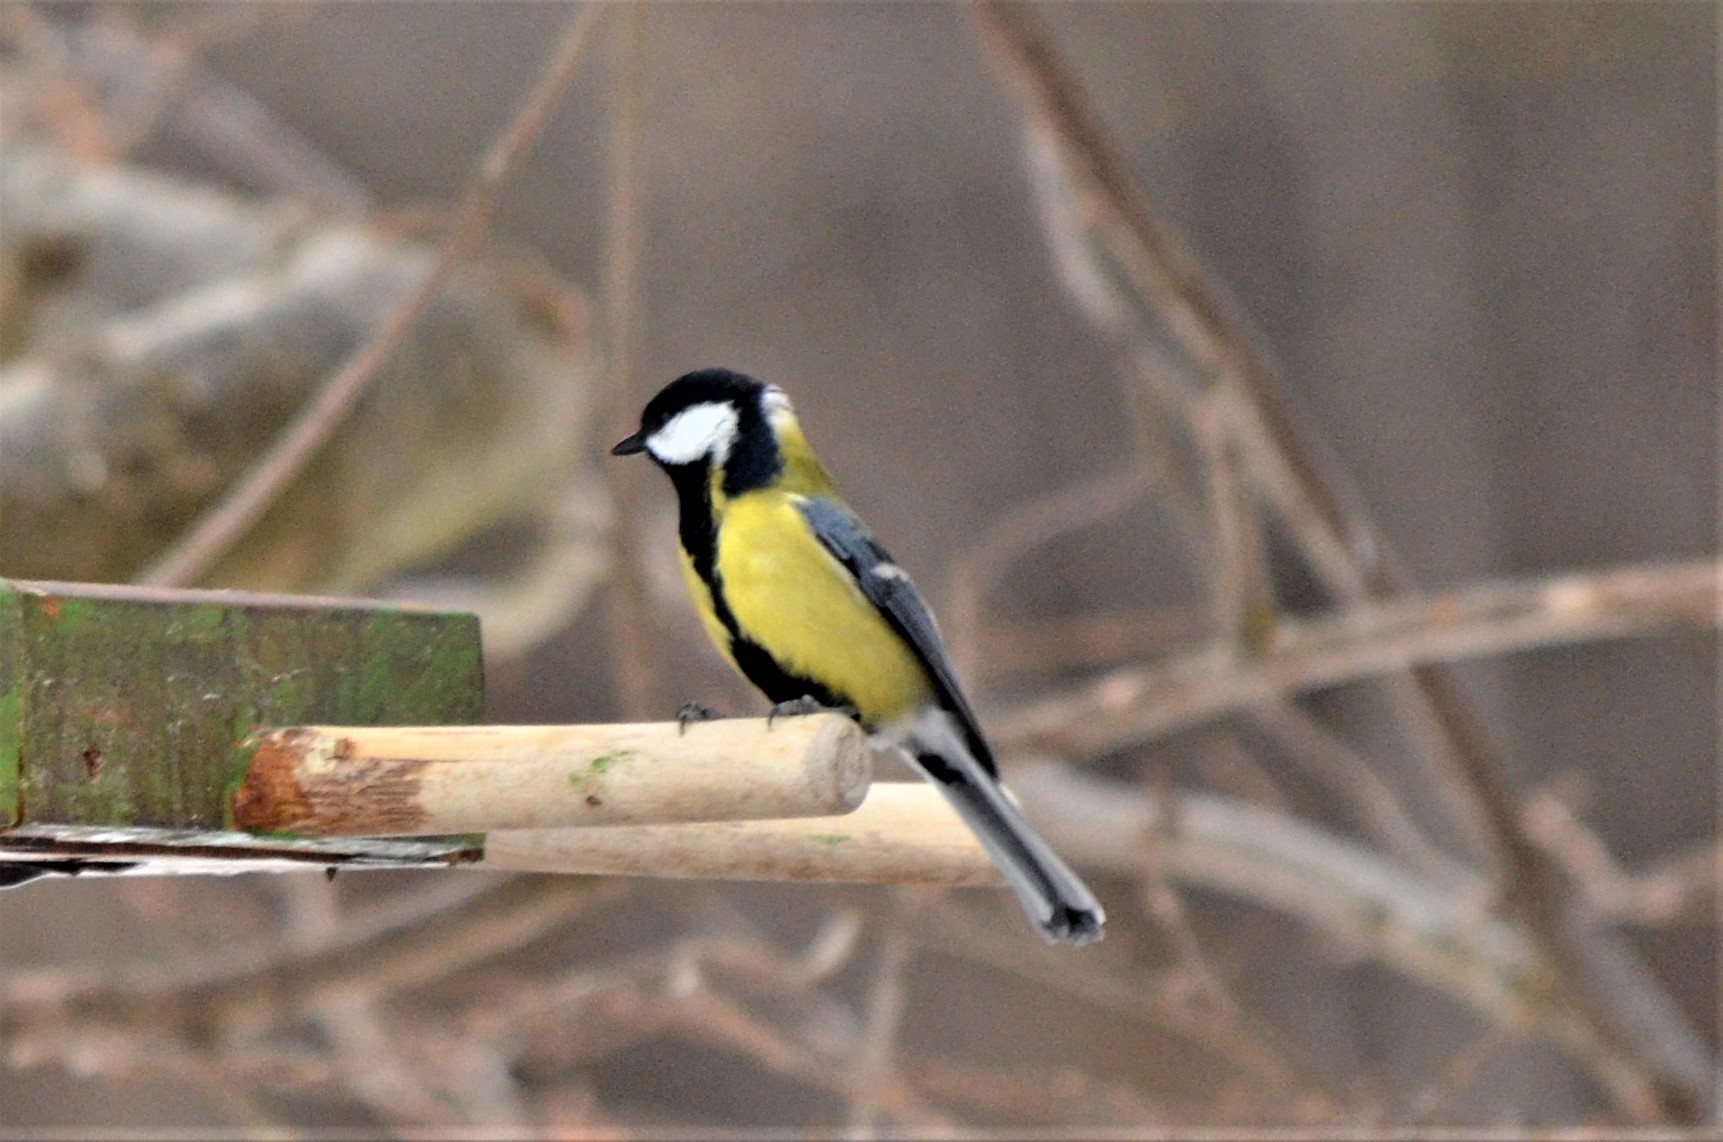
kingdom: Animalia
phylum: Chordata
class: Aves
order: Passeriformes
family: Paridae
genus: Parus
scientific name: Parus major
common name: Great tit
